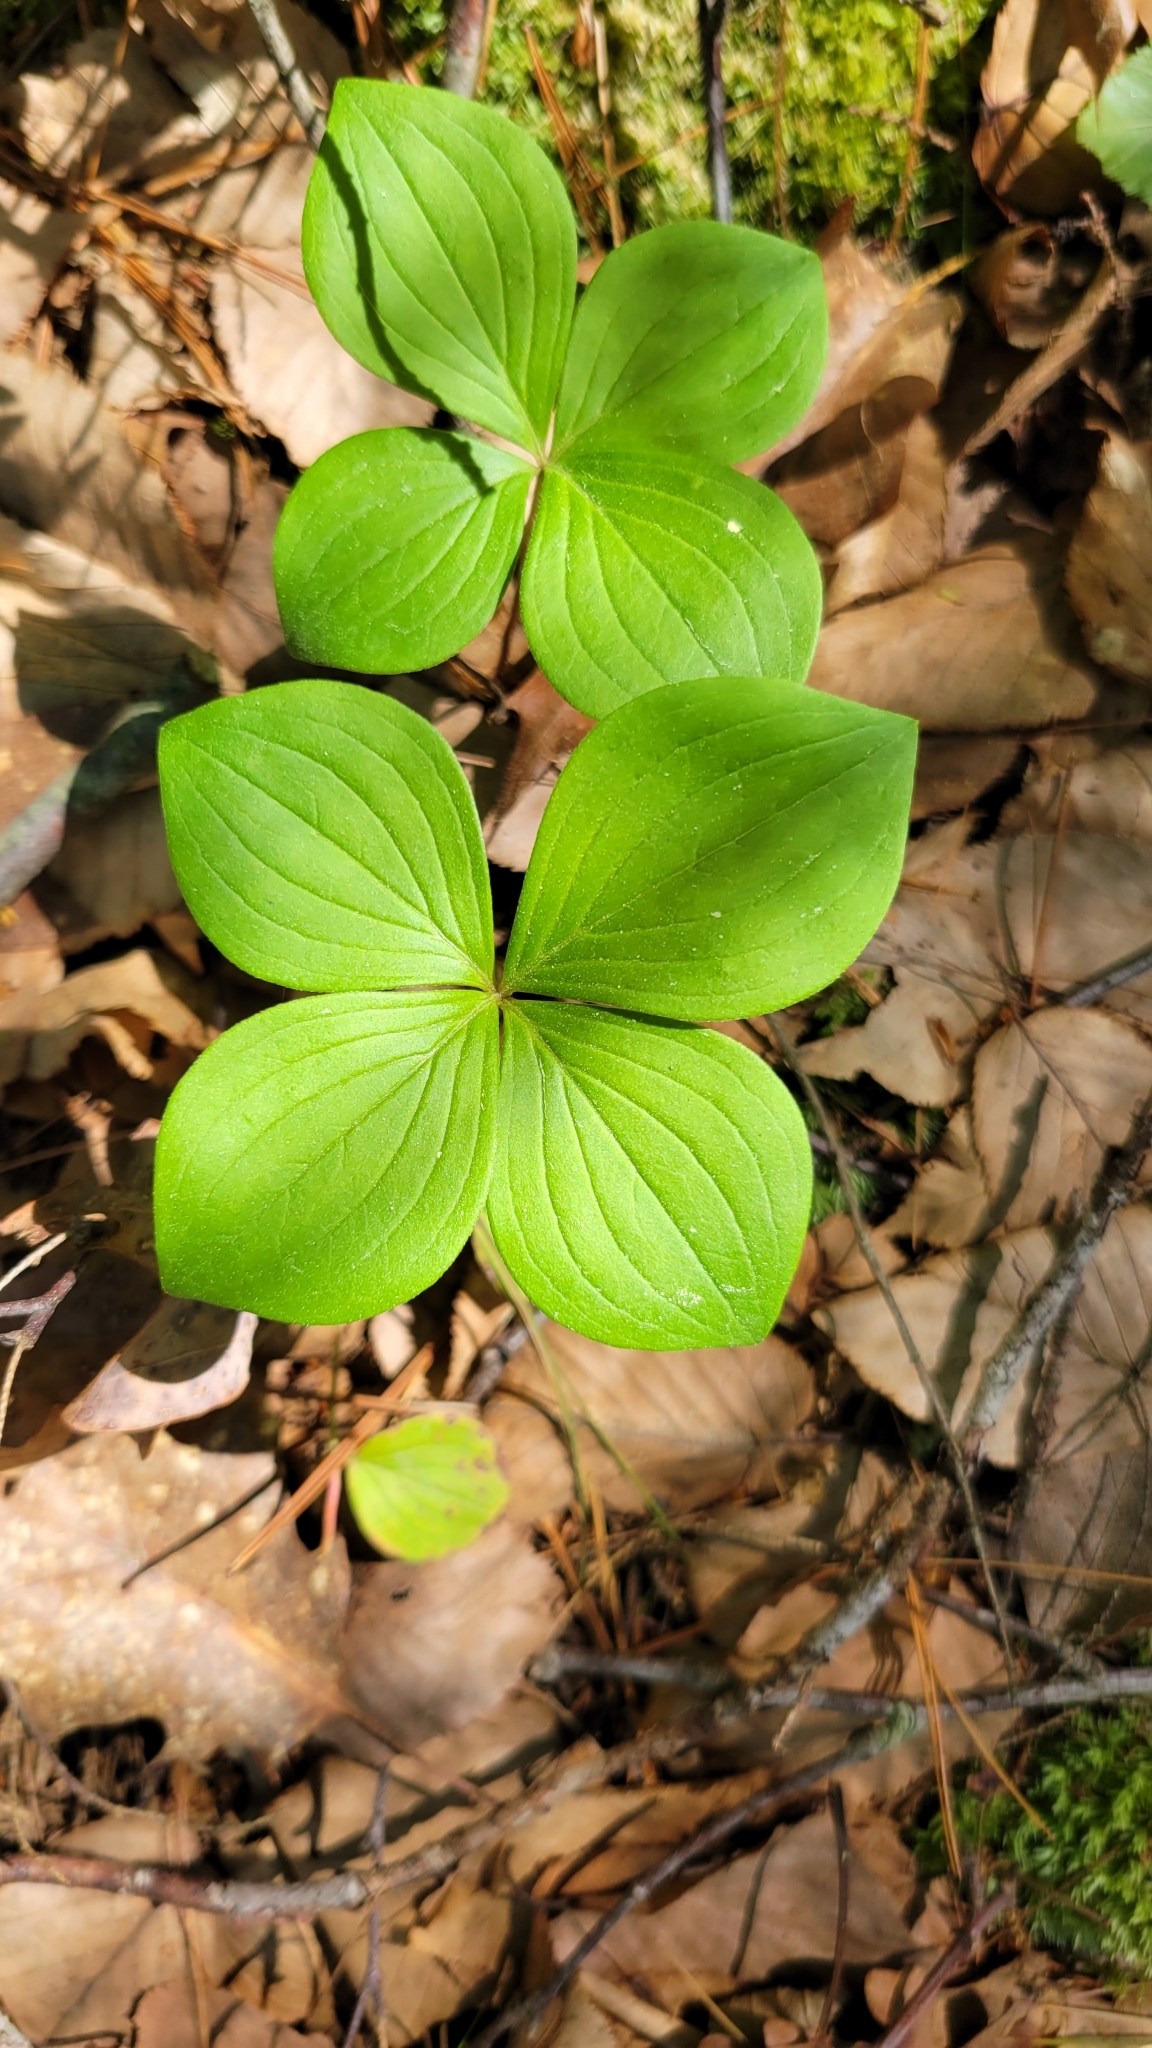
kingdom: Plantae
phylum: Tracheophyta
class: Magnoliopsida
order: Cornales
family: Cornaceae
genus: Cornus
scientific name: Cornus canadensis
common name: Creeping dogwood
